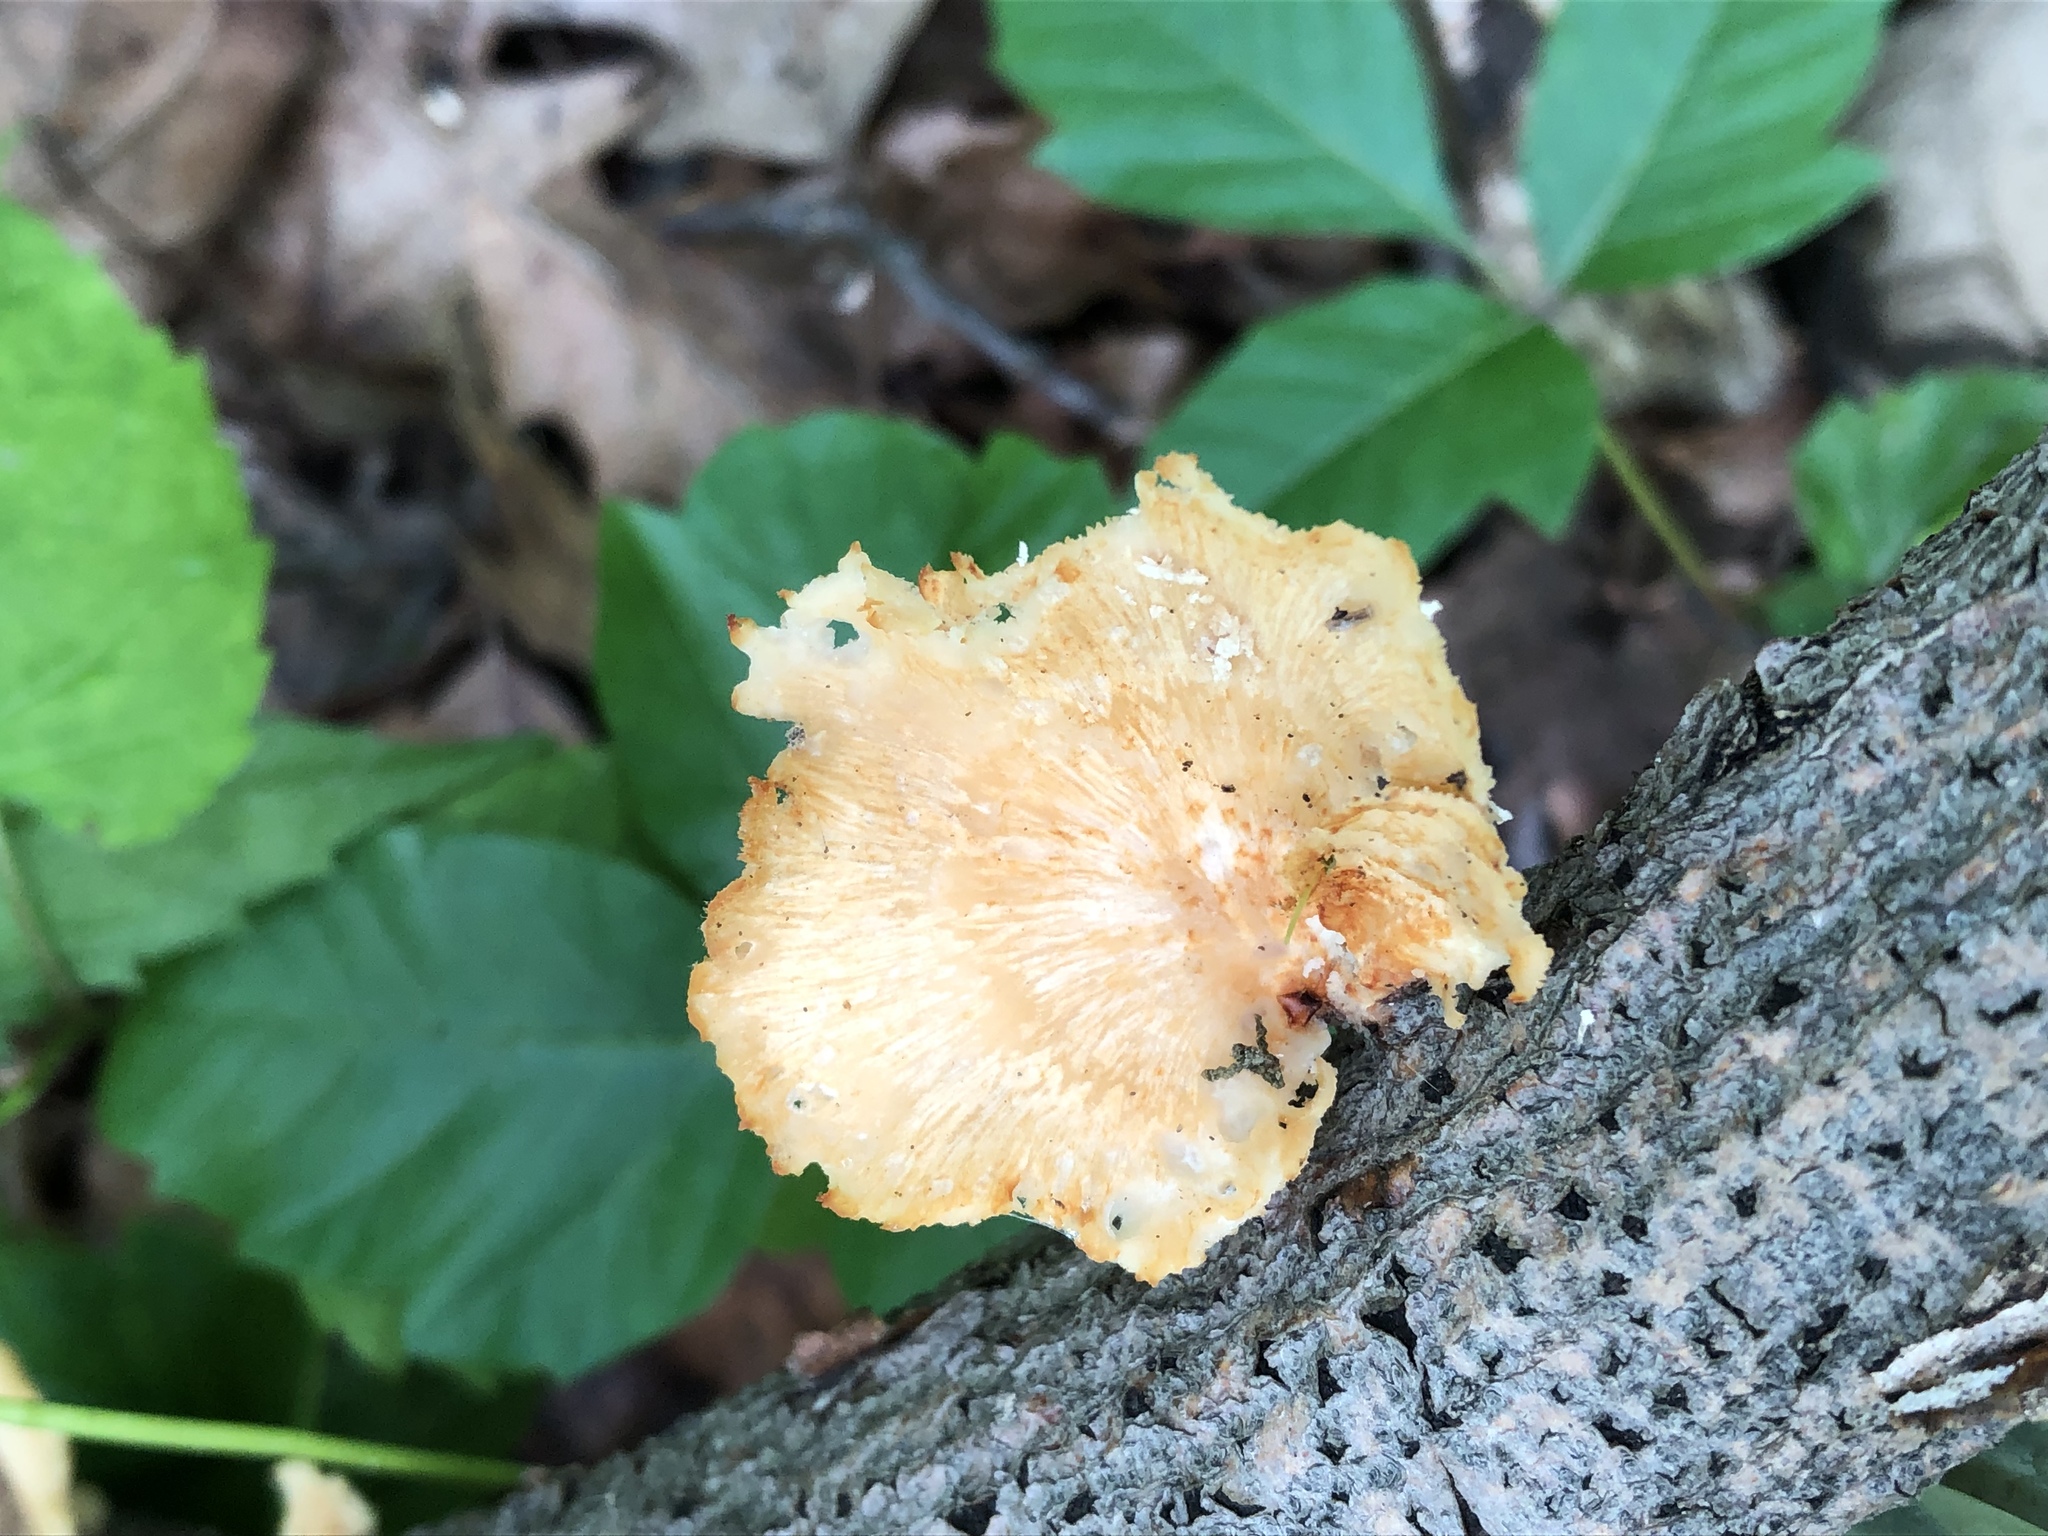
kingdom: Fungi
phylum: Basidiomycota
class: Agaricomycetes
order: Polyporales
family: Polyporaceae
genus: Neofavolus
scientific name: Neofavolus alveolaris
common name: Hexagonal-pored polypore
